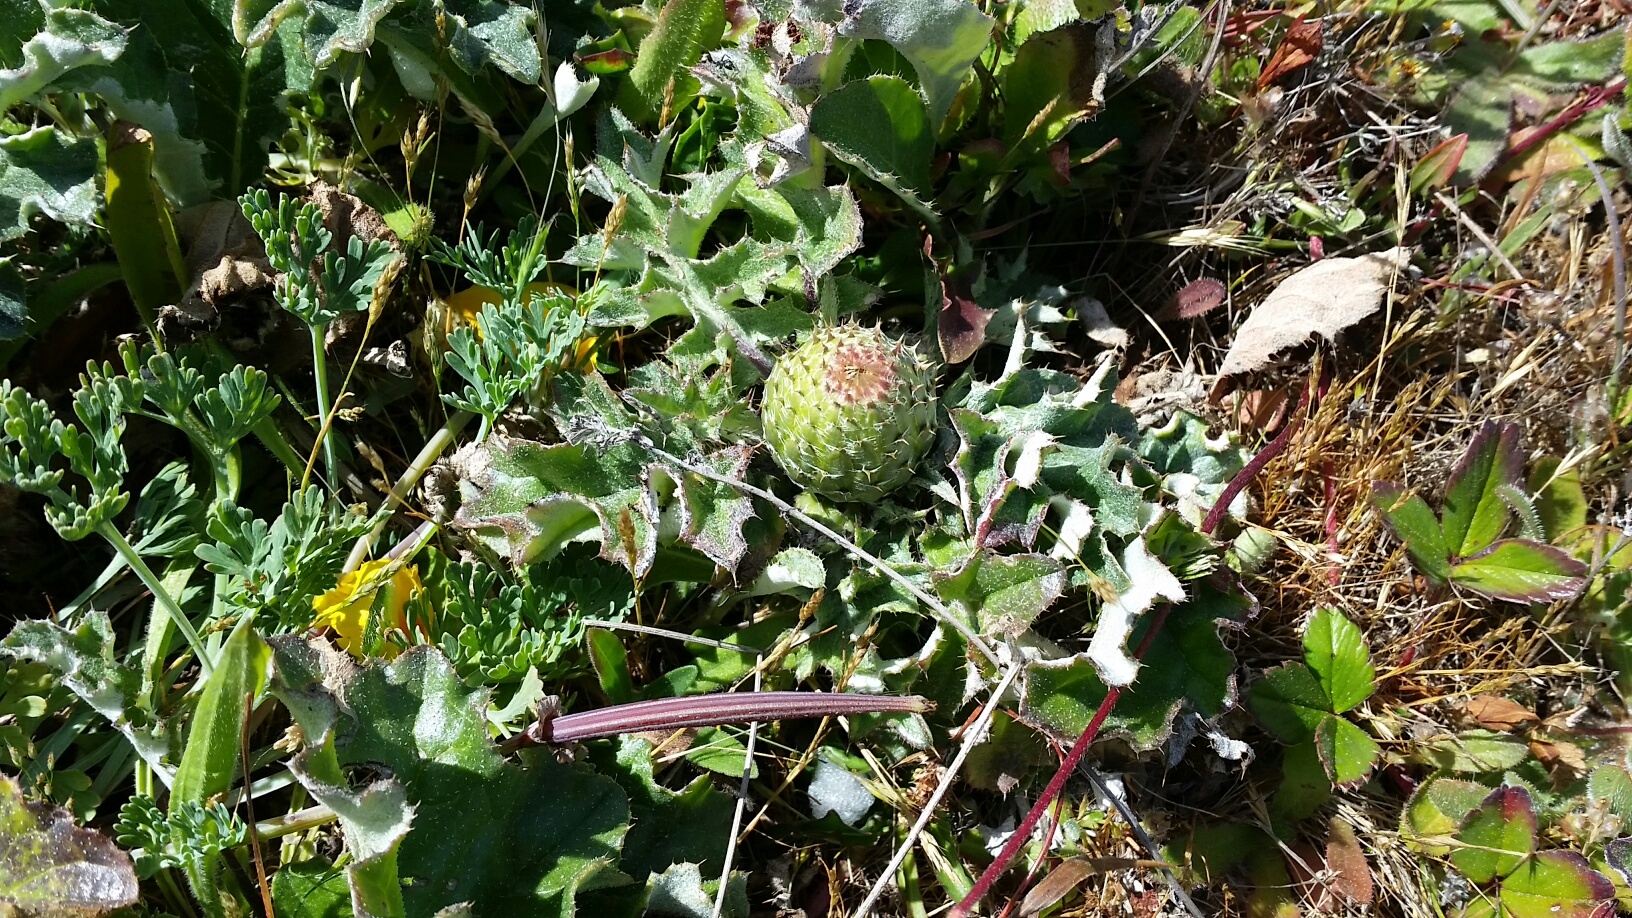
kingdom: Plantae
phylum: Tracheophyta
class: Magnoliopsida
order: Asterales
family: Asteraceae
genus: Cirsium
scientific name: Cirsium quercetorum
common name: Alameda county thistle
